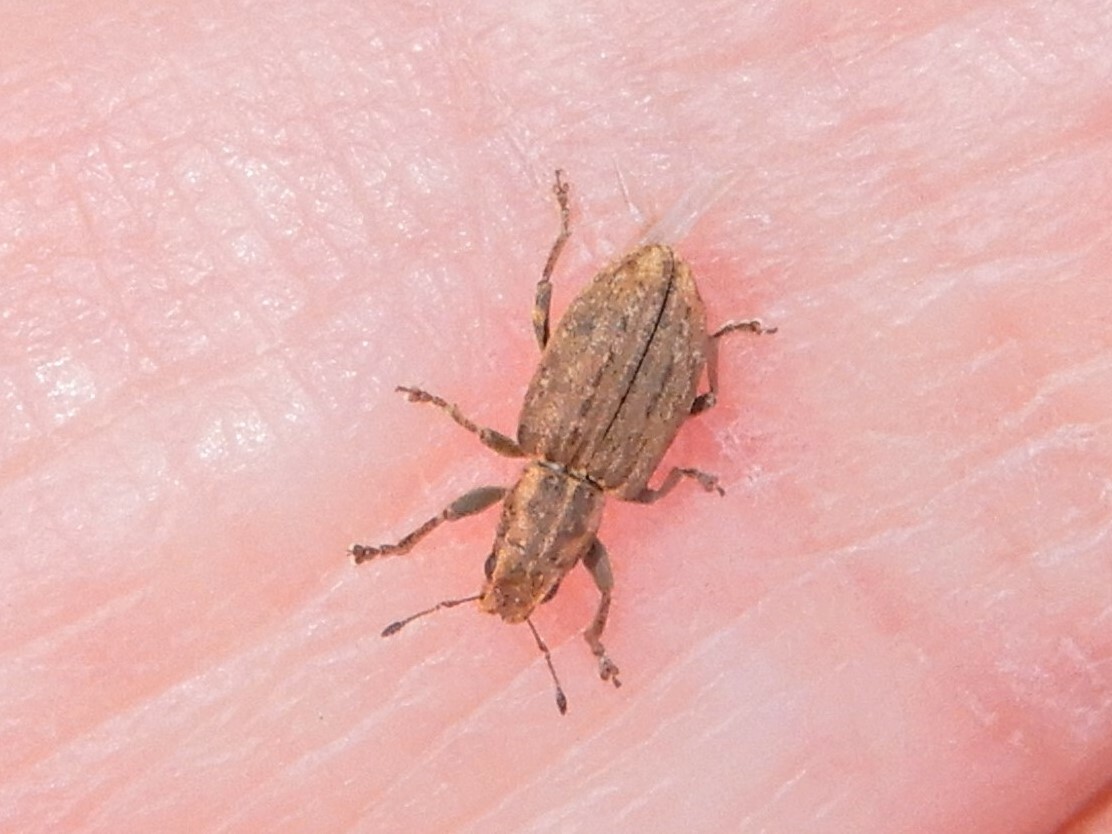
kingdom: Animalia
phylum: Arthropoda
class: Insecta
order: Coleoptera
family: Curculionidae
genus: Sitona
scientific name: Sitona obsoletus
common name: Weevil
